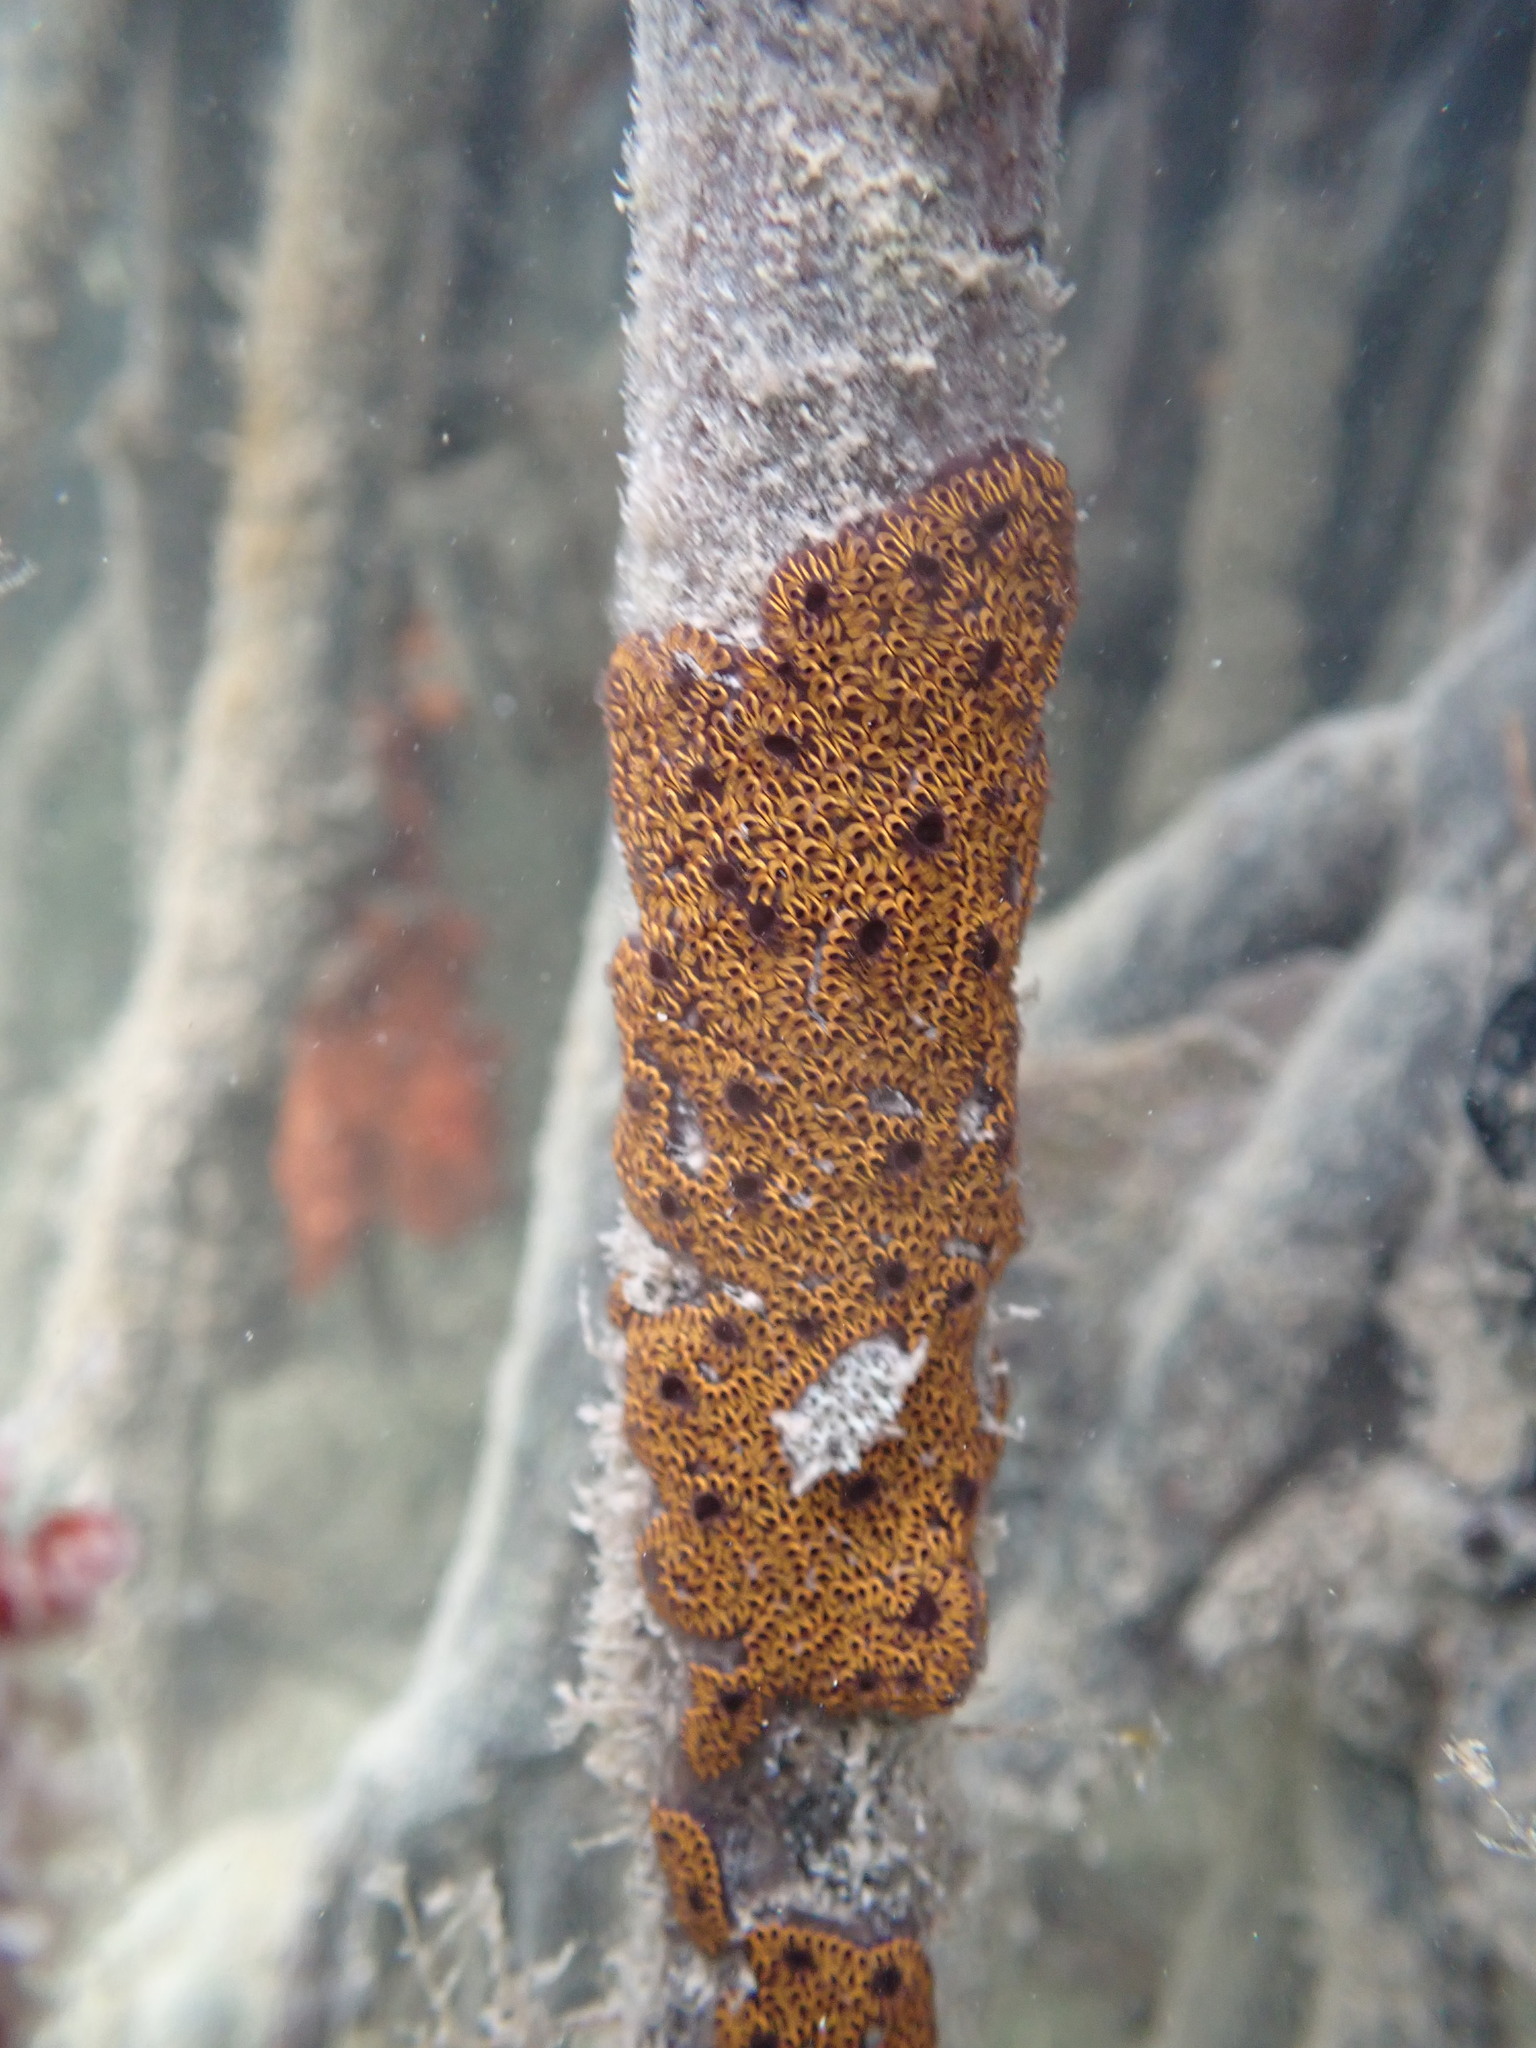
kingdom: Animalia
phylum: Chordata
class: Ascidiacea
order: Stolidobranchia
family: Styelidae
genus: Botrylloides
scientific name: Botrylloides niger
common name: Black synascidia
